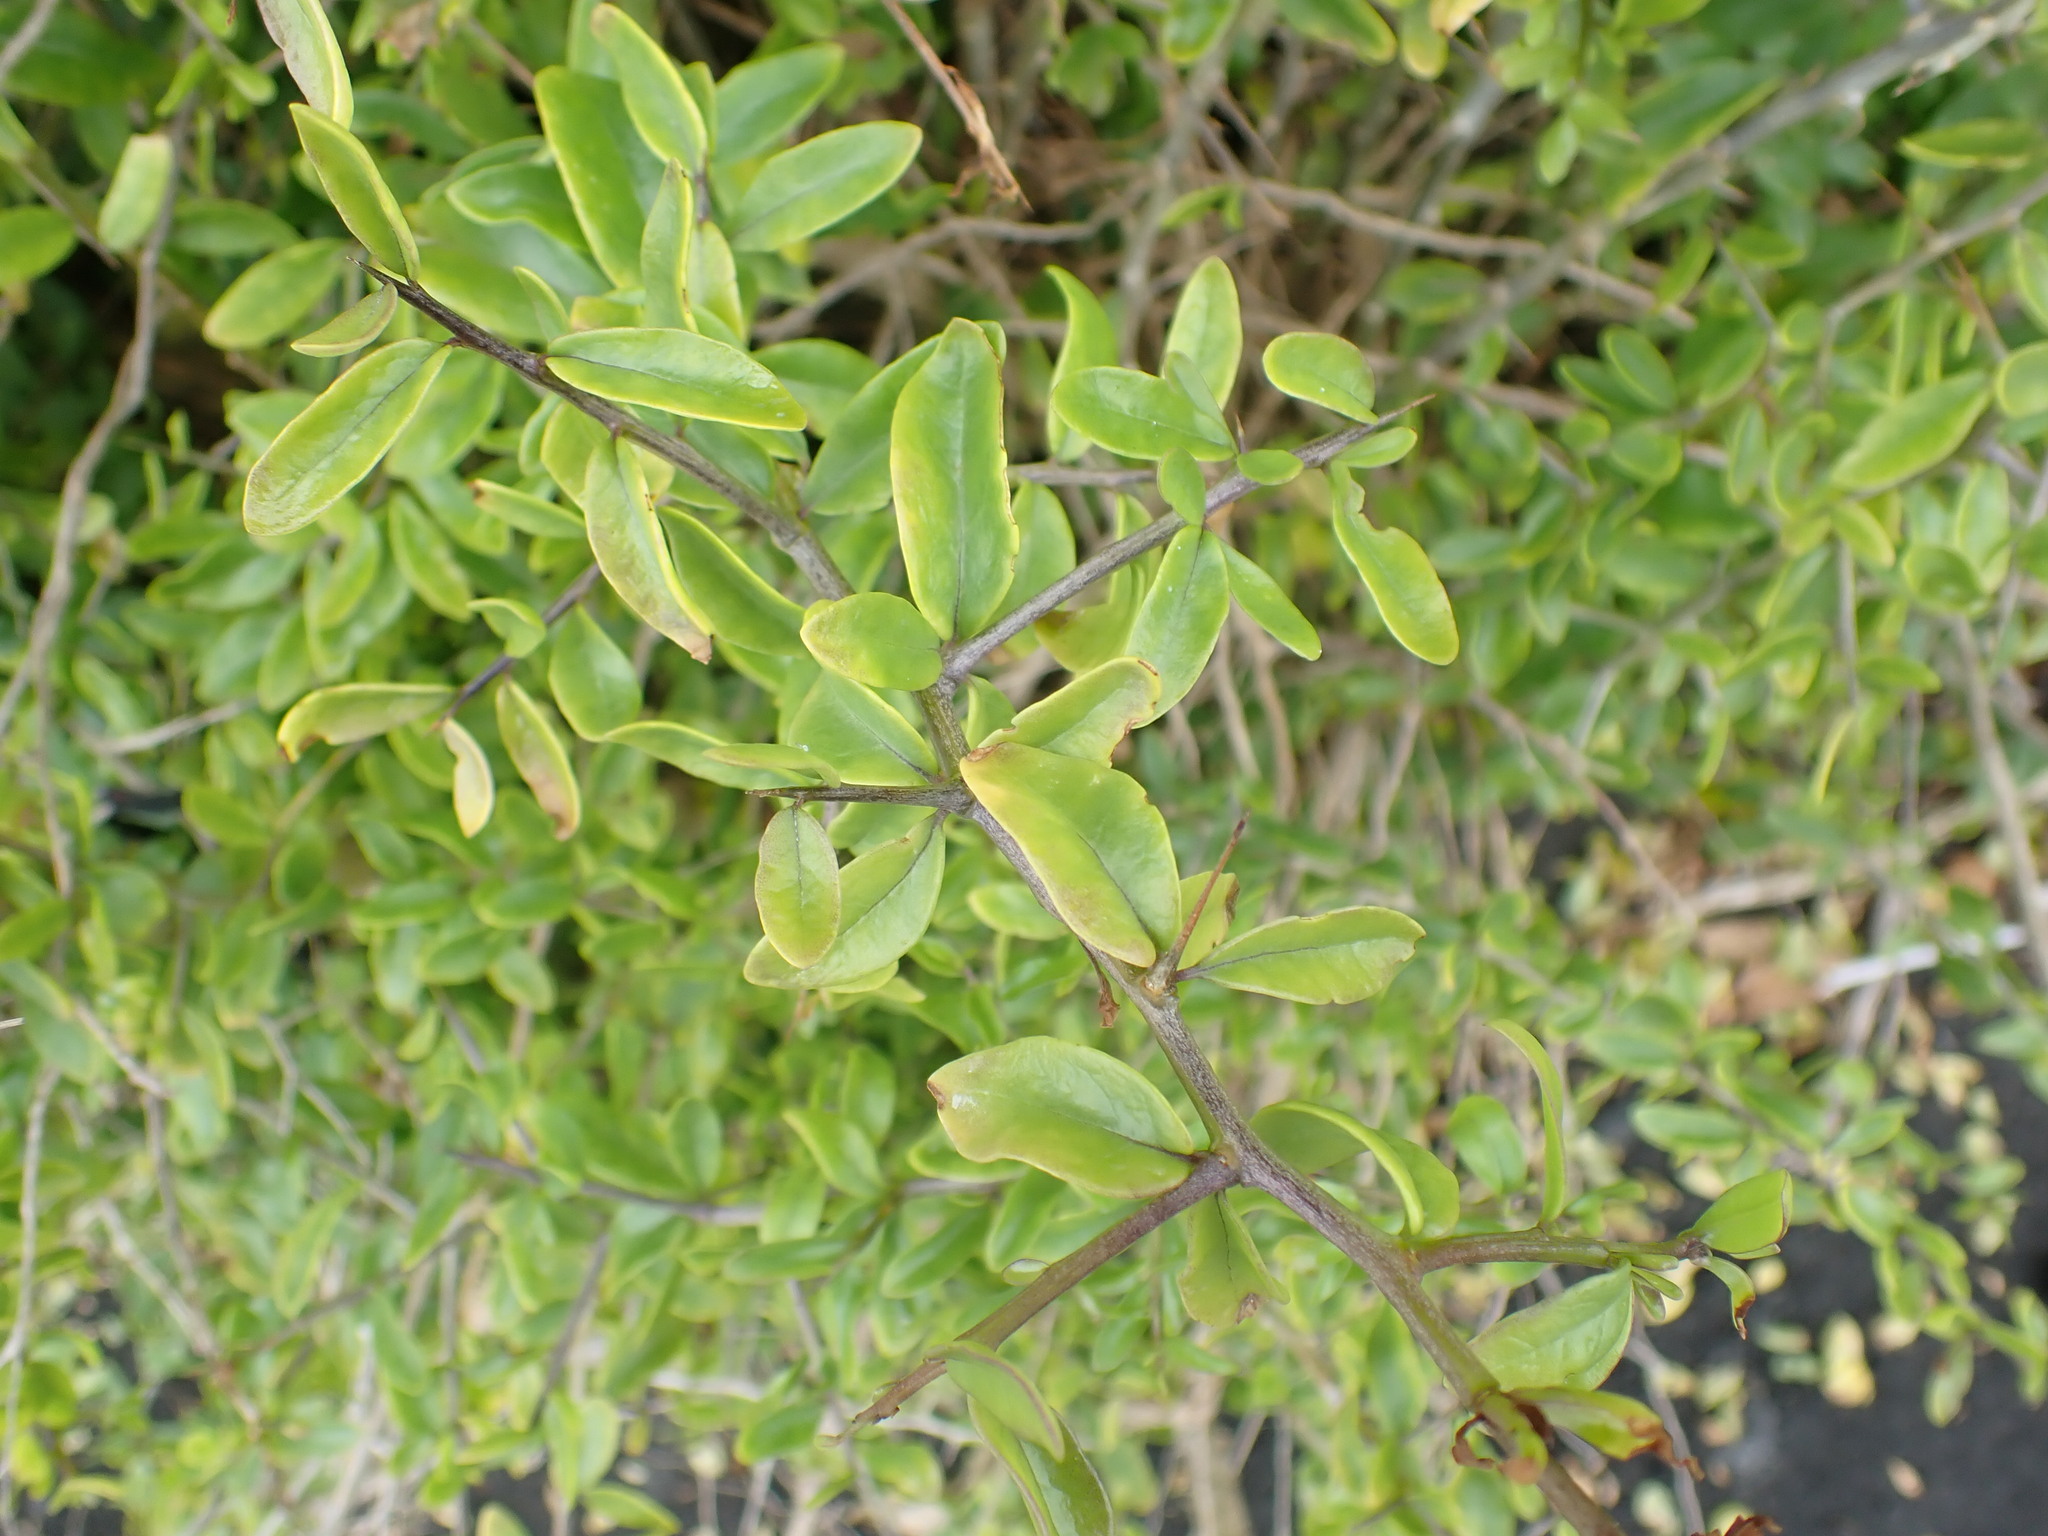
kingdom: Plantae
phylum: Tracheophyta
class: Magnoliopsida
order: Solanales
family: Solanaceae
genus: Lycium
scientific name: Lycium ferocissimum
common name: African boxthorn
